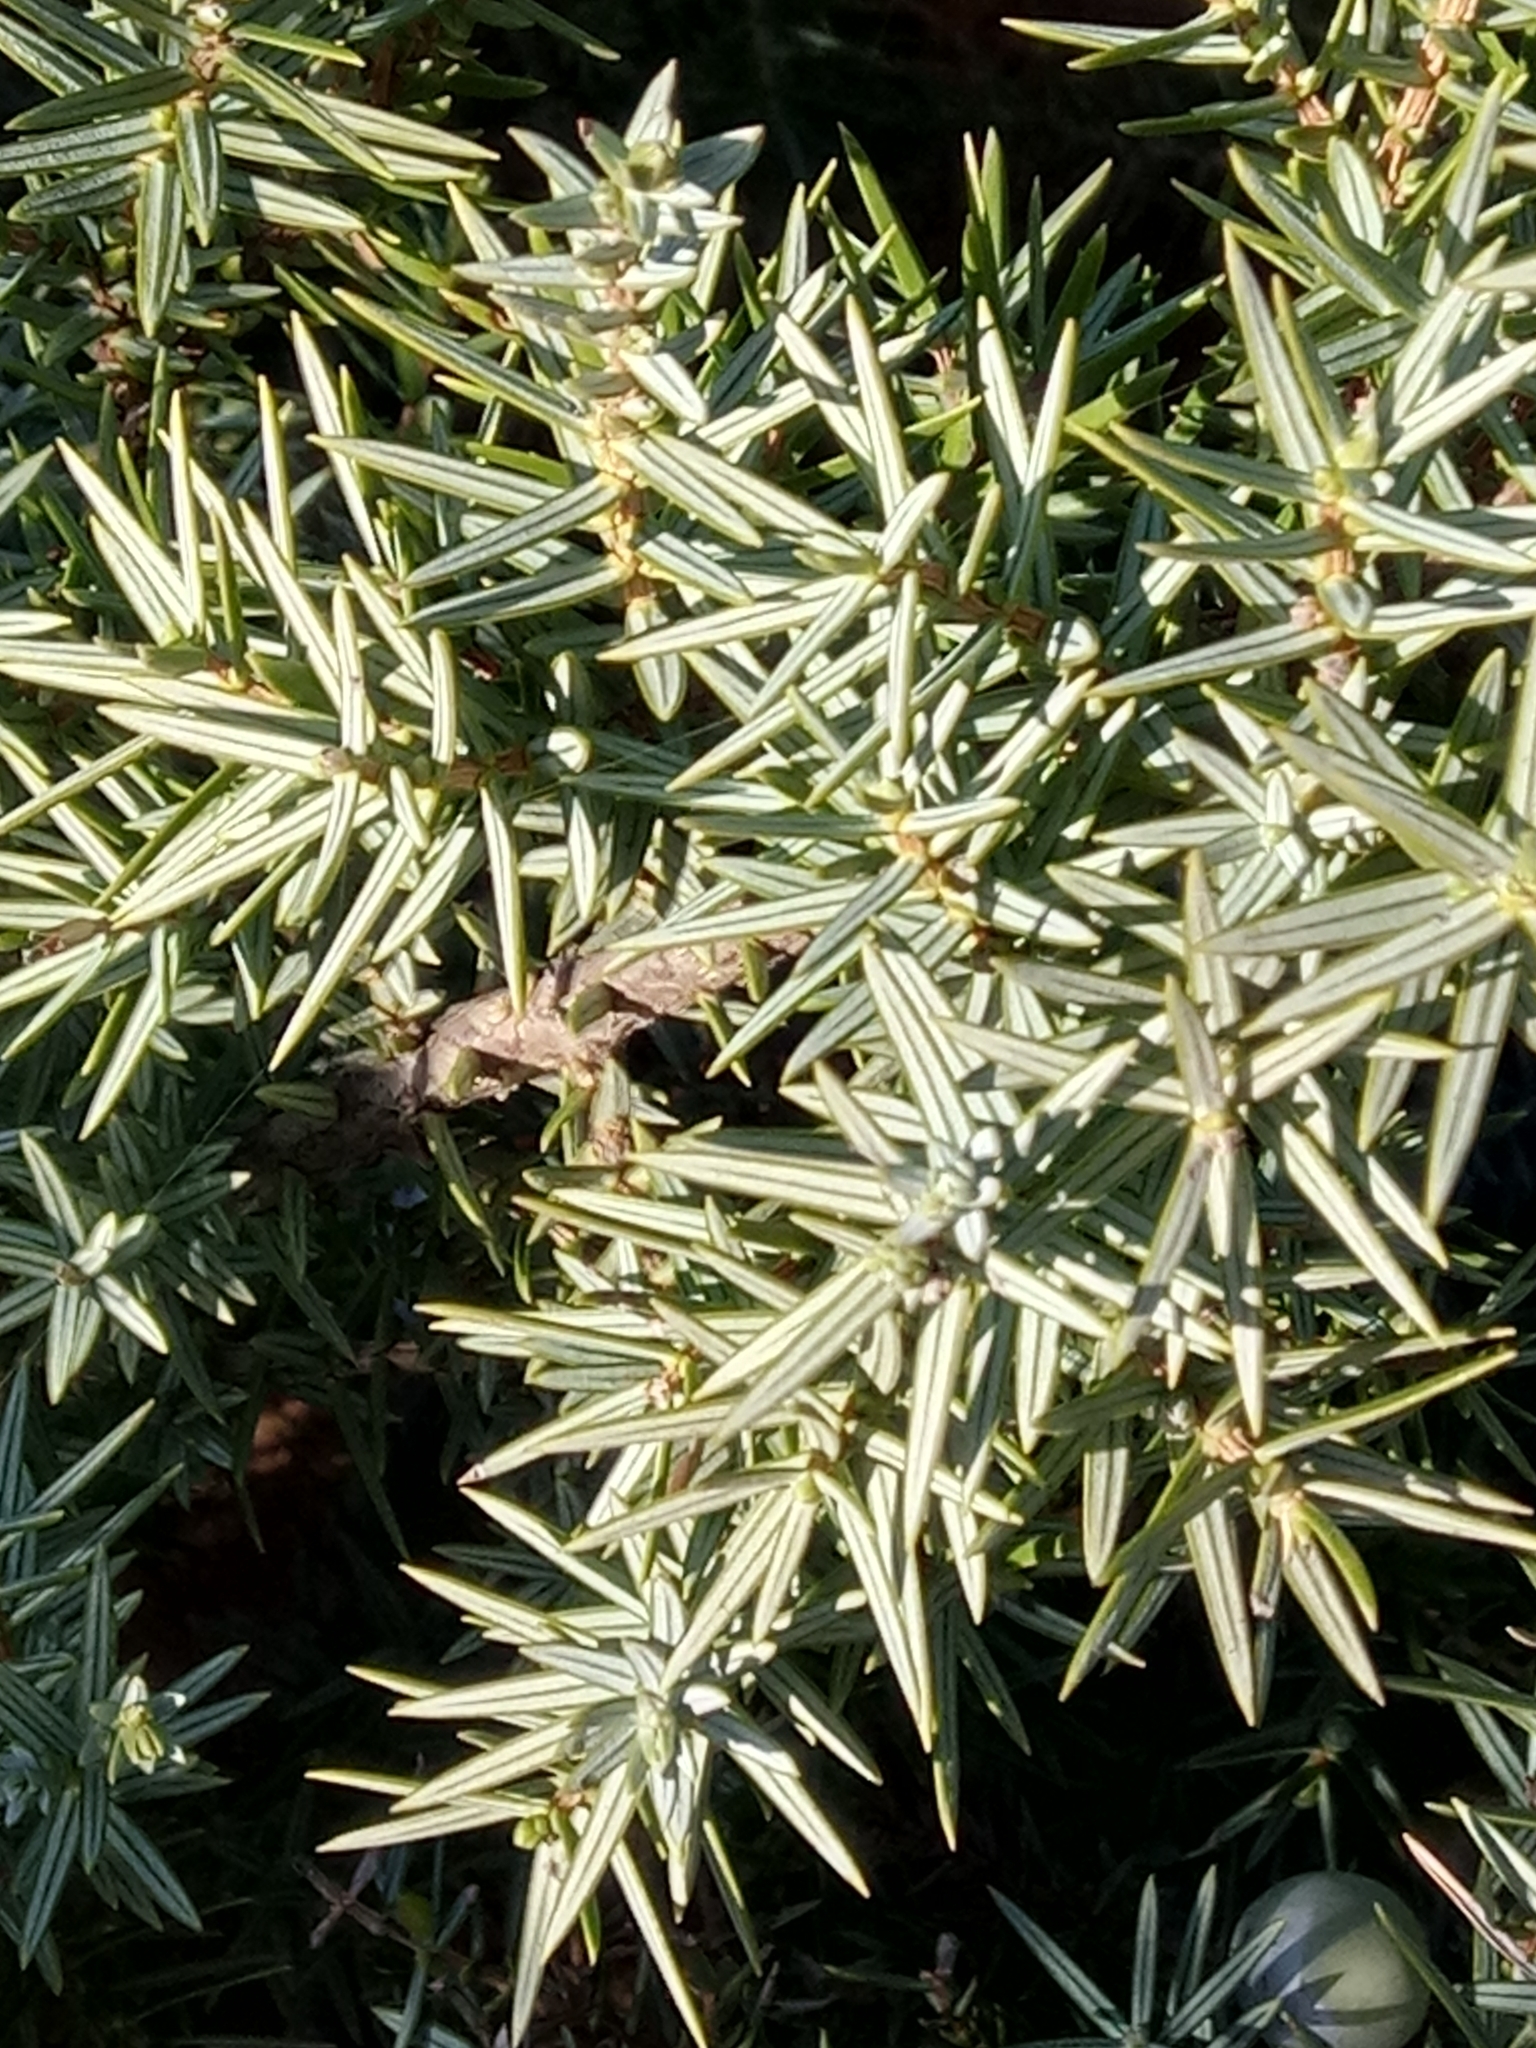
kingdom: Plantae
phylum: Tracheophyta
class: Pinopsida
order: Pinales
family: Cupressaceae
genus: Juniperus
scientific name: Juniperus oxycedrus
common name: Prickly juniper
